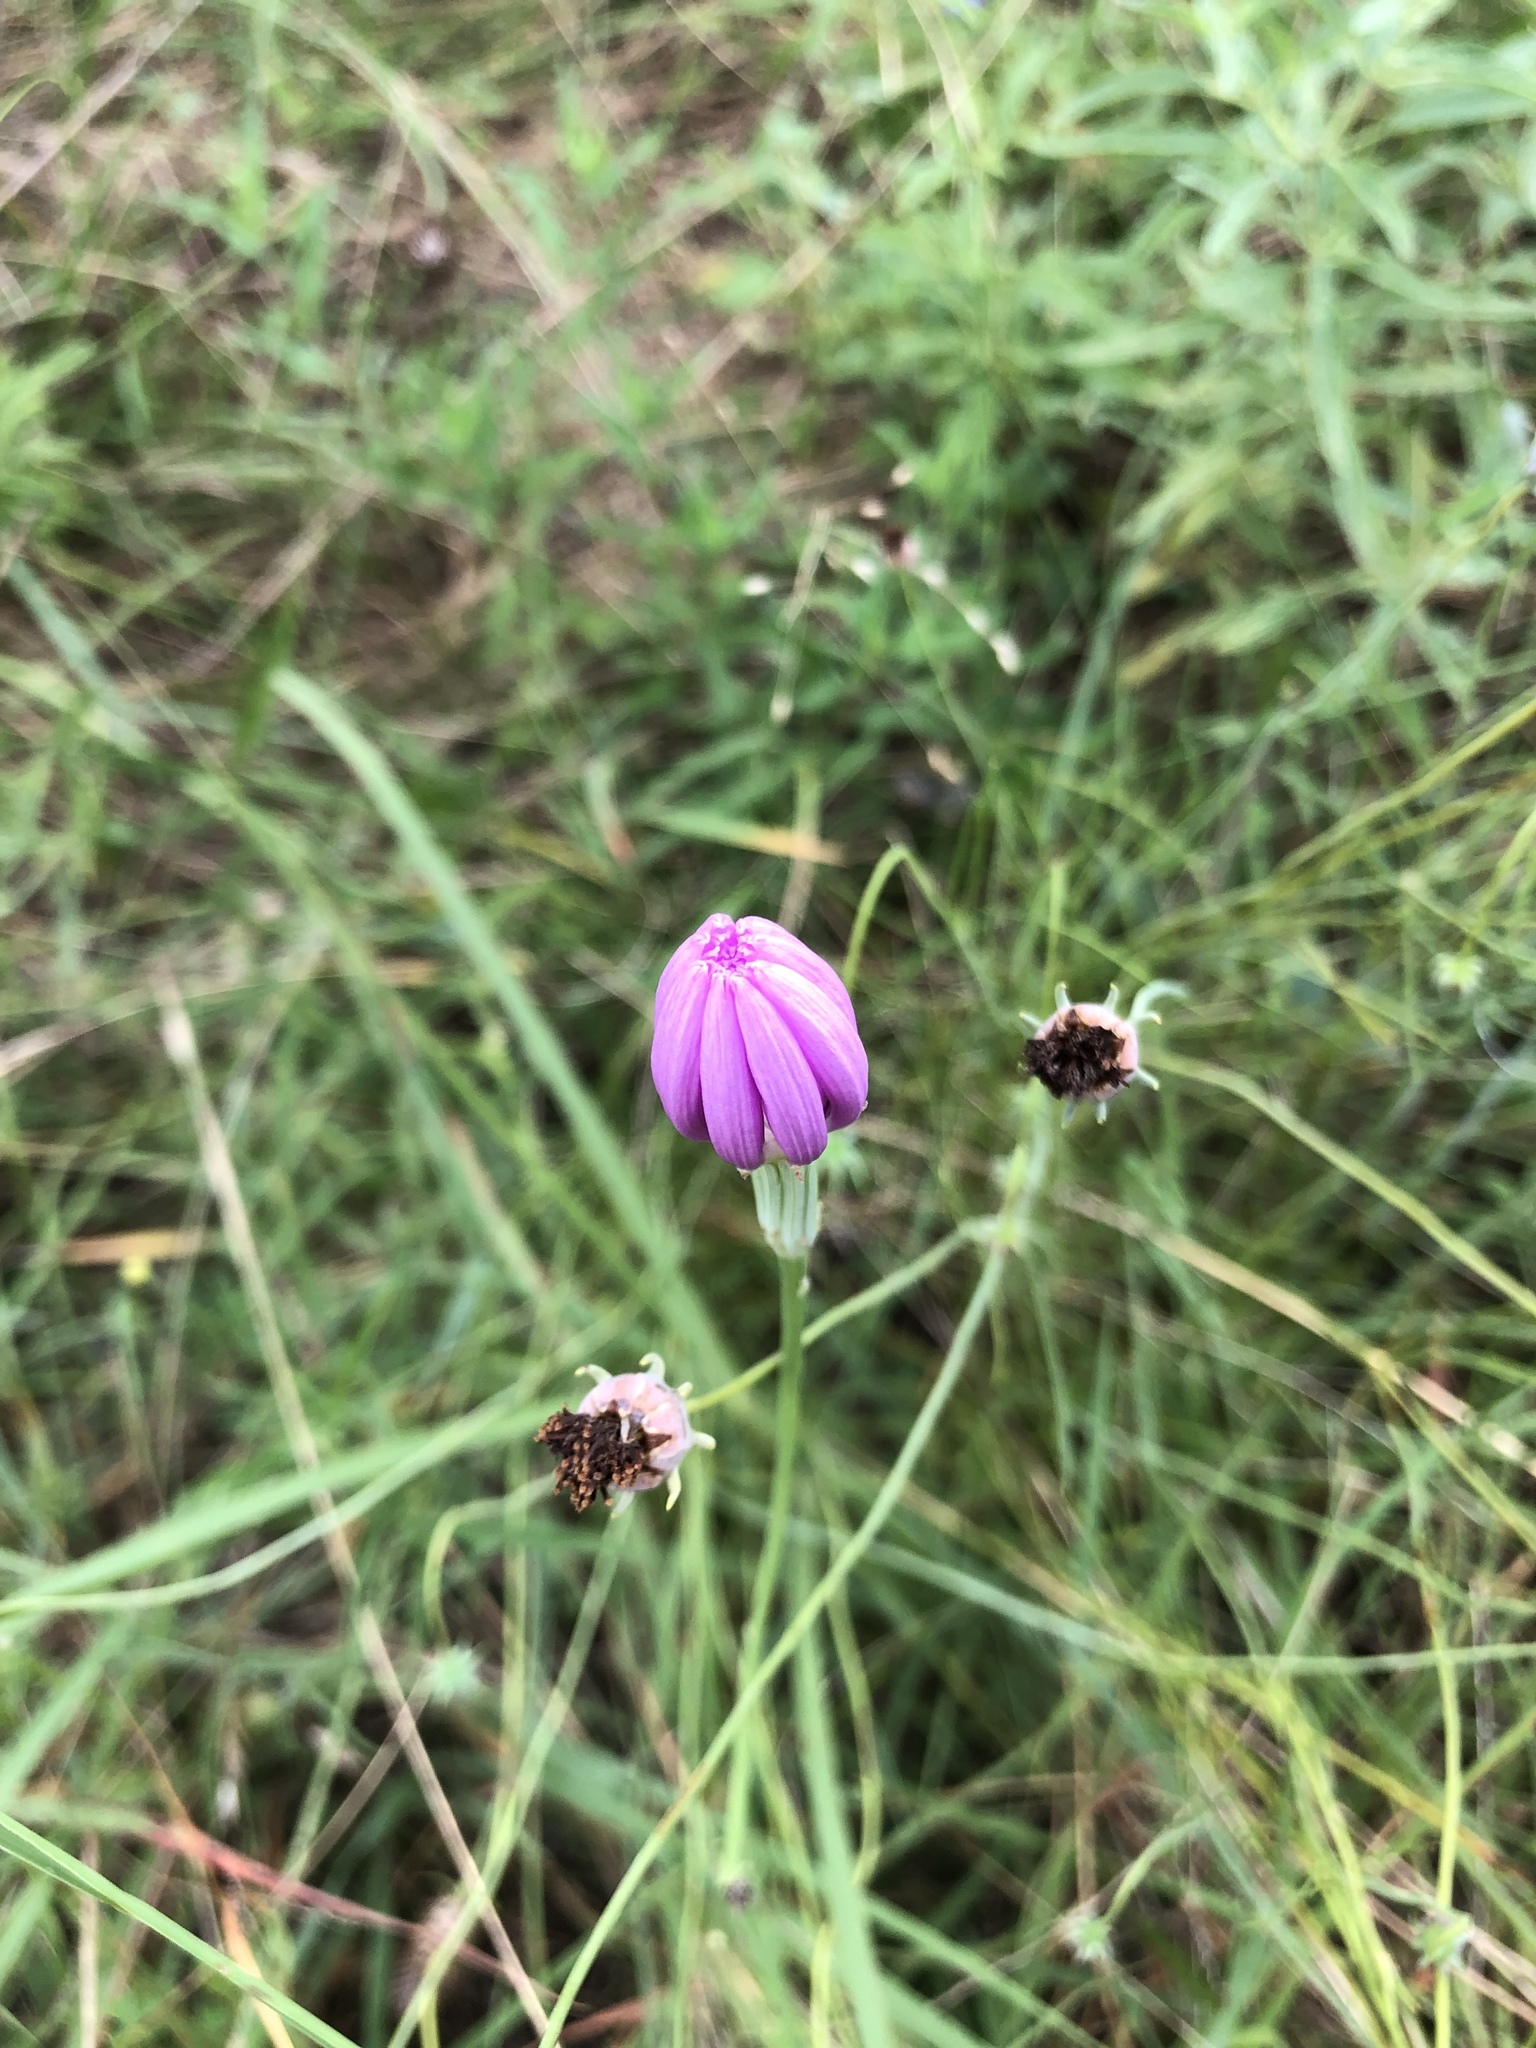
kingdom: Plantae
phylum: Tracheophyta
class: Magnoliopsida
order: Asterales
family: Asteraceae
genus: Lygodesmia
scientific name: Lygodesmia texana
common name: Texas skeleton-plant
